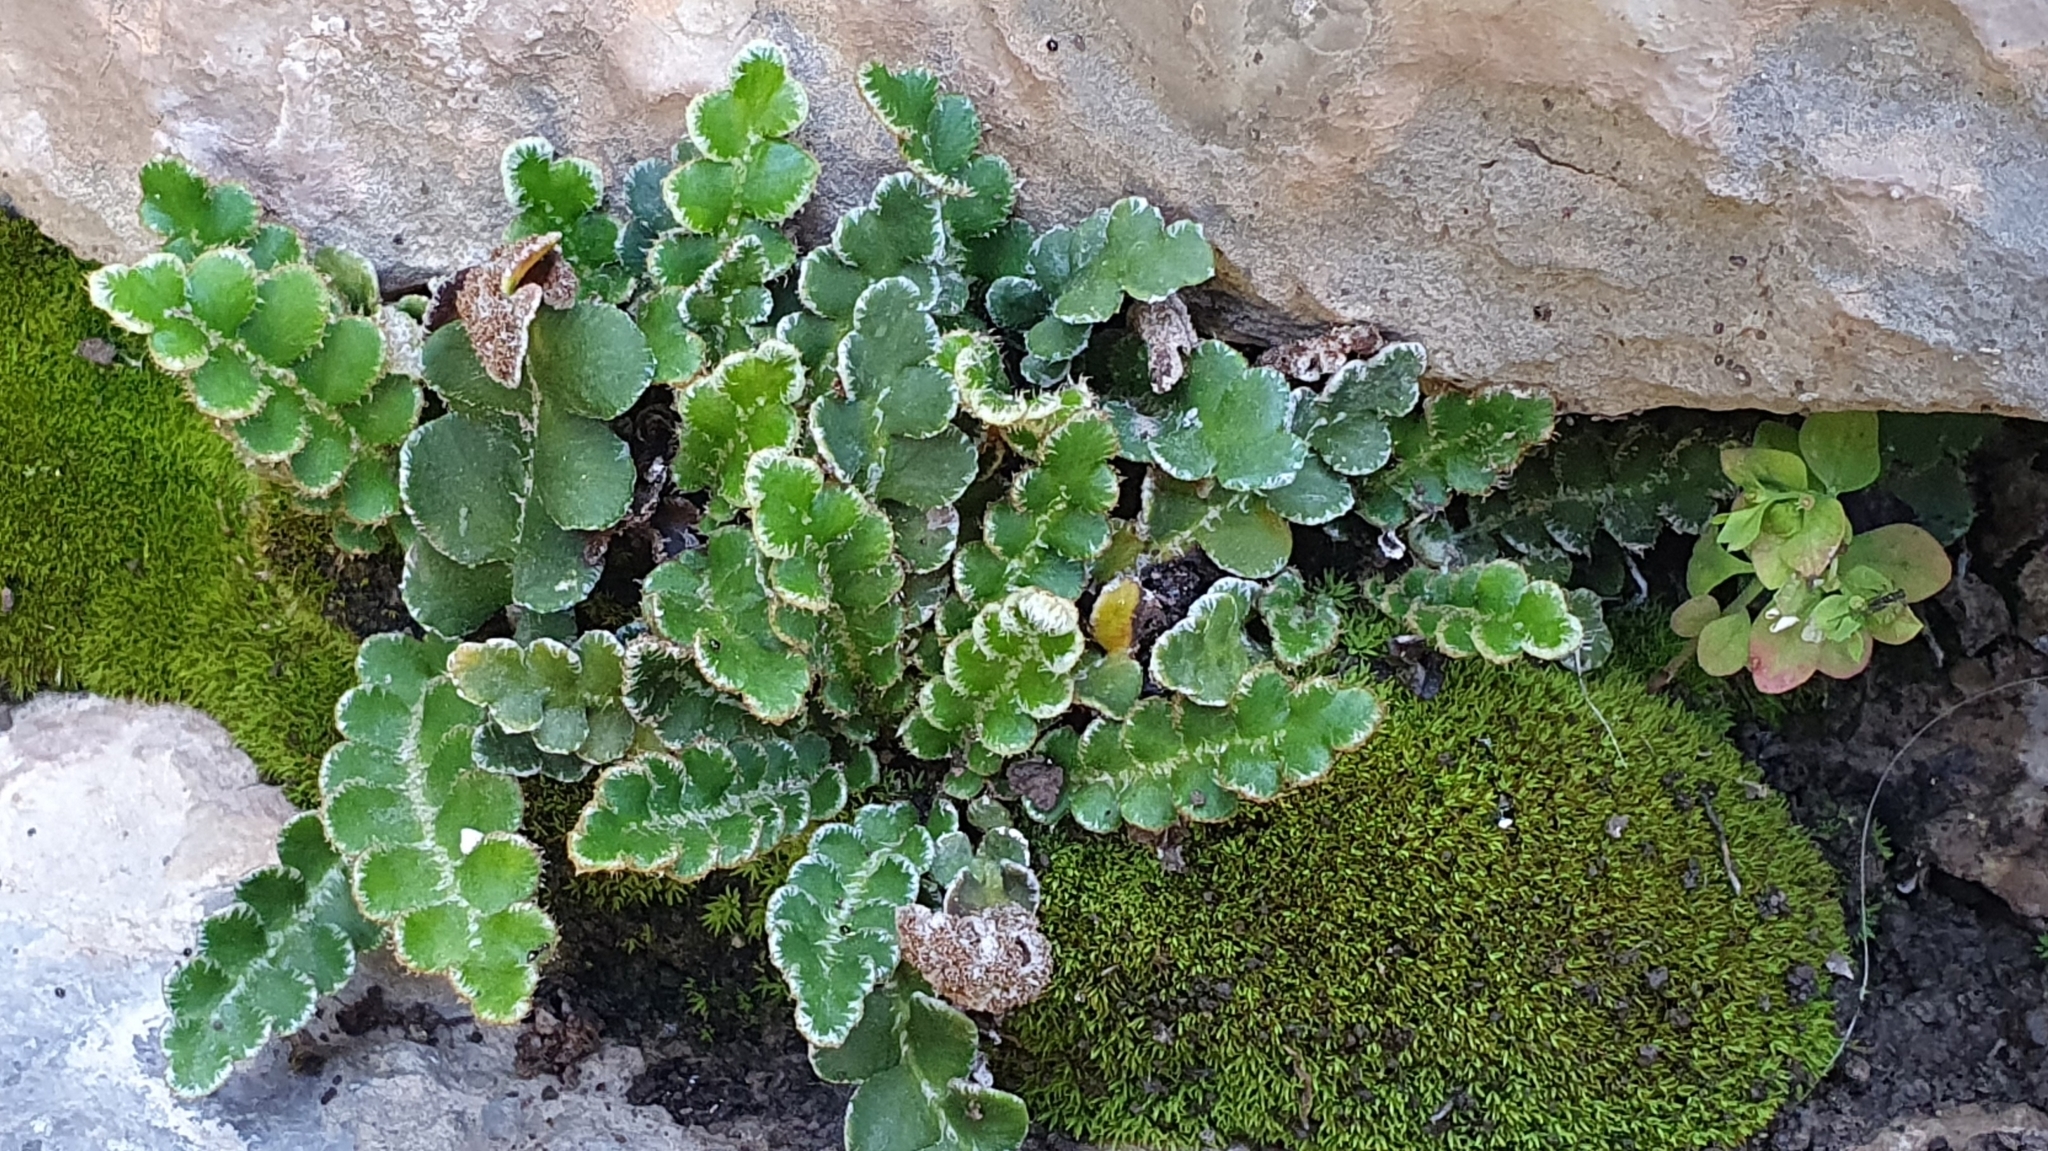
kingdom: Plantae
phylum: Tracheophyta
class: Polypodiopsida
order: Polypodiales
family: Aspleniaceae
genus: Asplenium
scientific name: Asplenium ceterach
